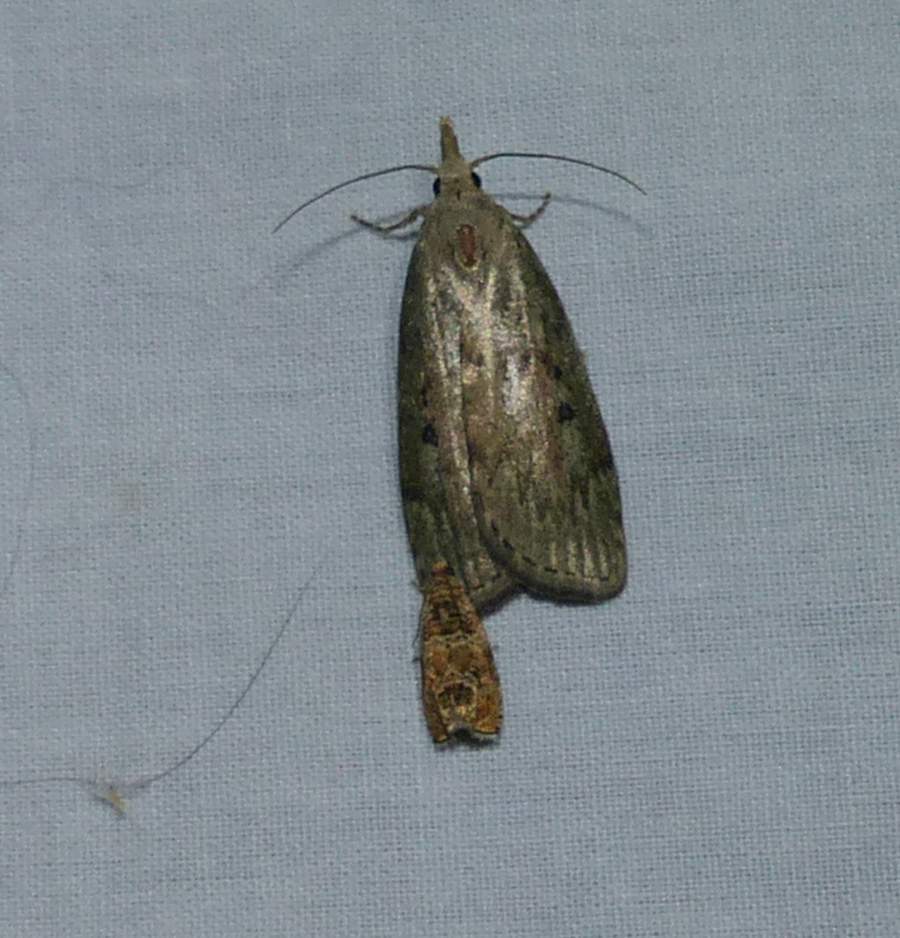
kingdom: Animalia
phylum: Arthropoda
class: Insecta
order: Lepidoptera
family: Pyralidae
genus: Aphomia
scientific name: Aphomia sociella
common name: Bee moth
